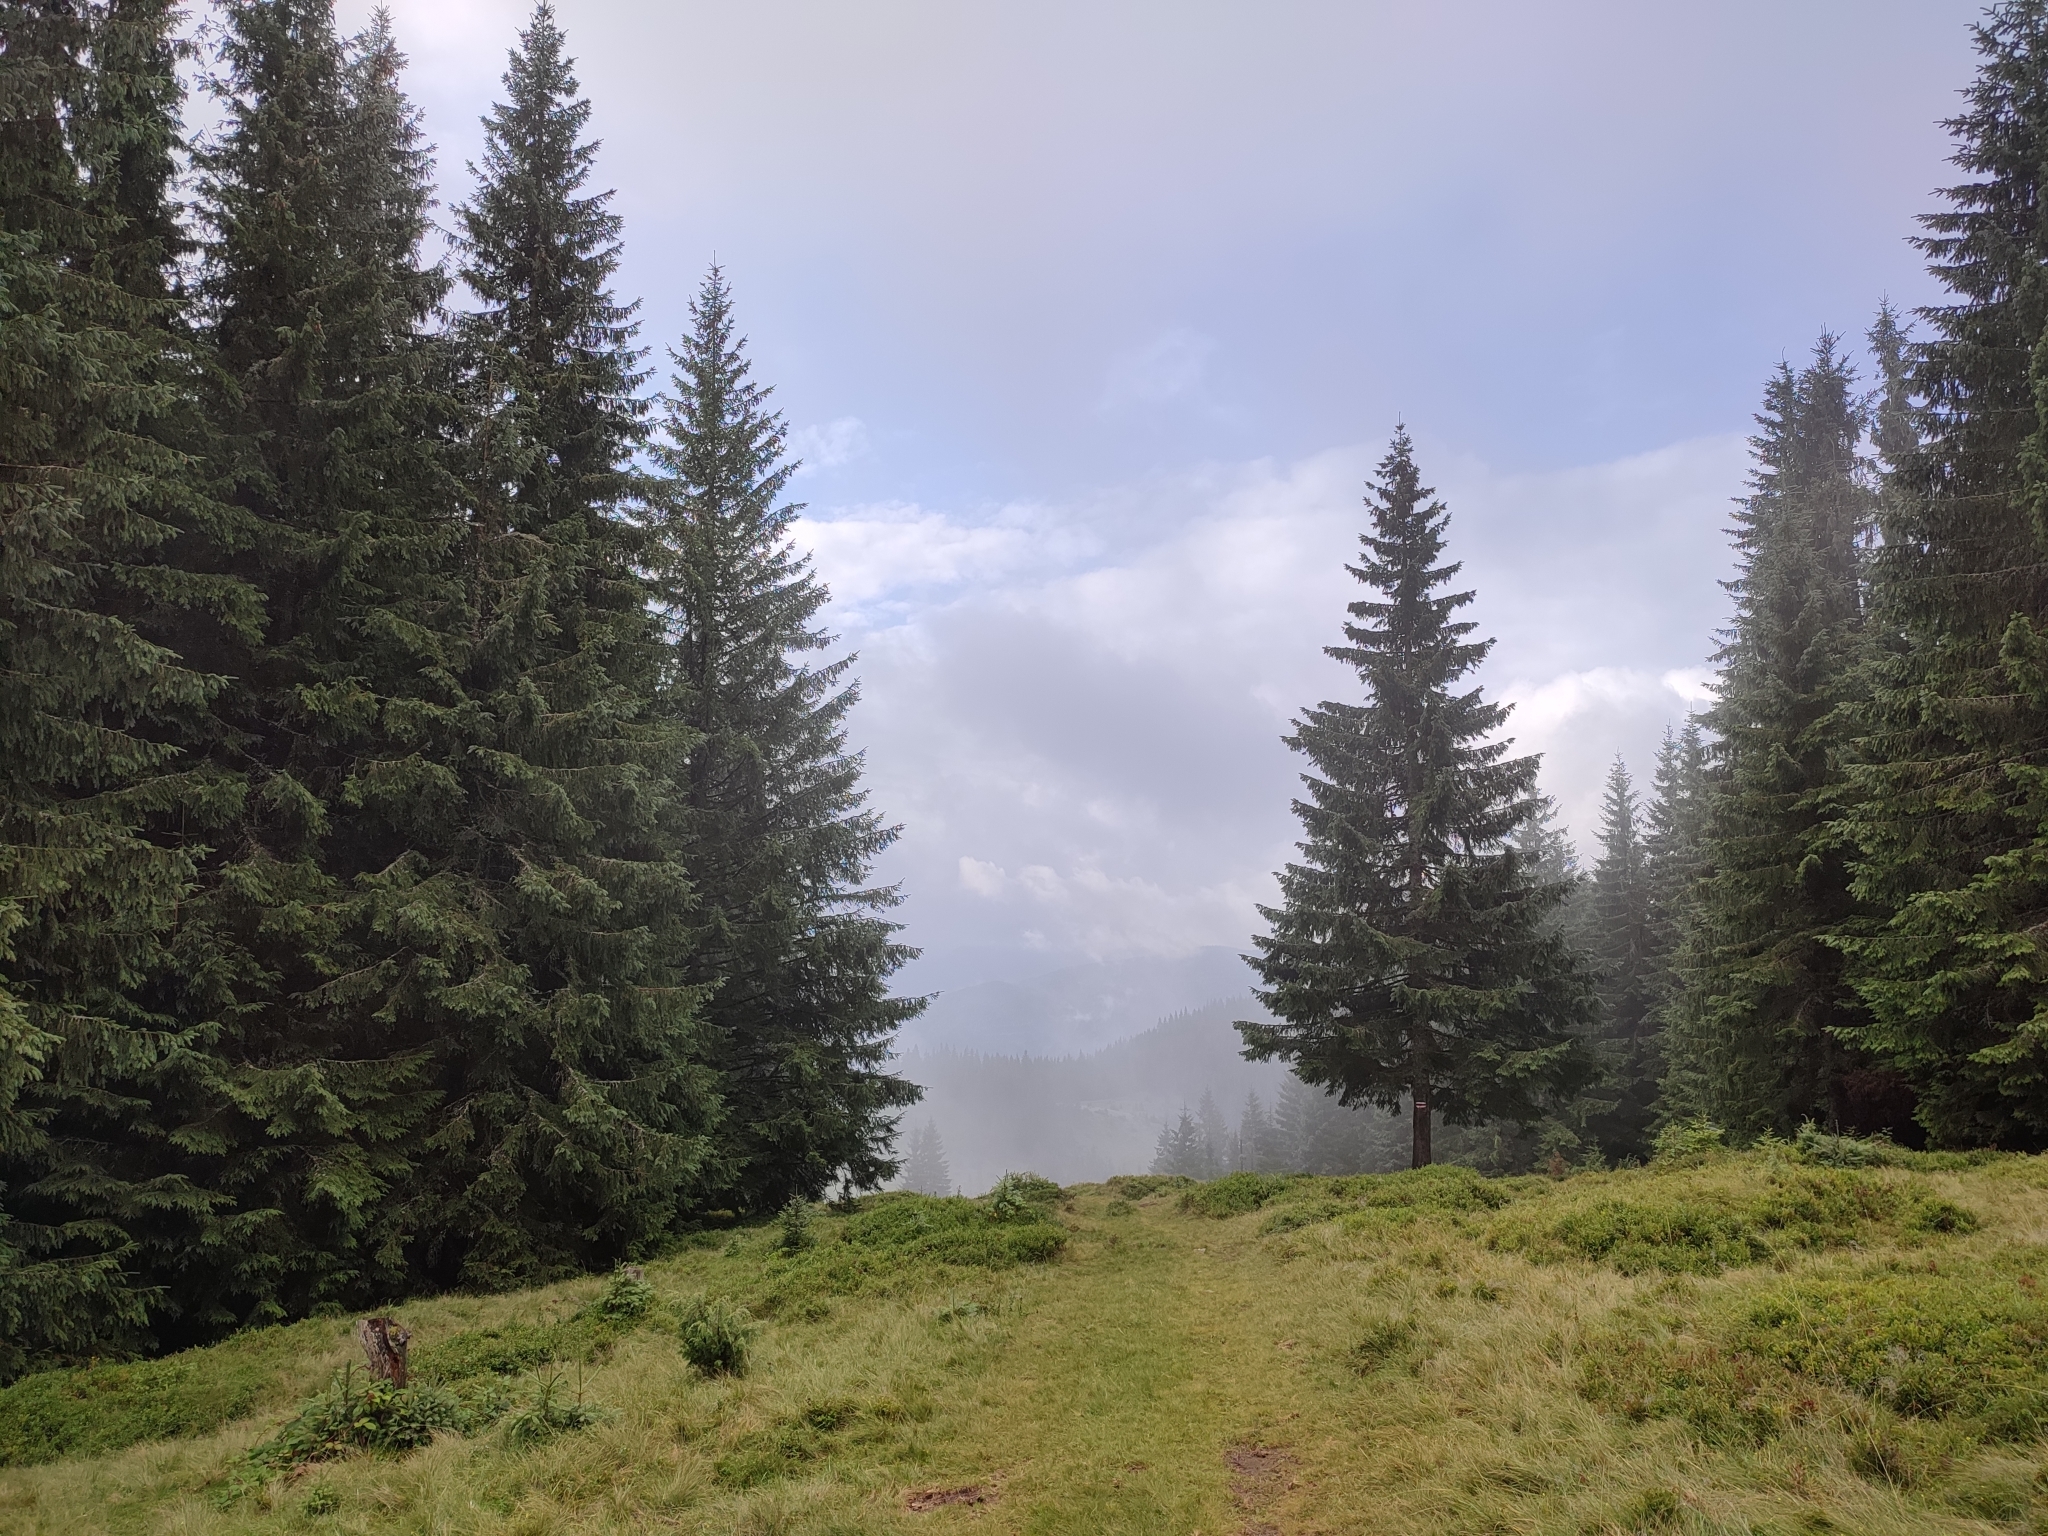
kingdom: Plantae
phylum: Tracheophyta
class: Pinopsida
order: Pinales
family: Pinaceae
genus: Picea
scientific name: Picea abies
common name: Norway spruce
